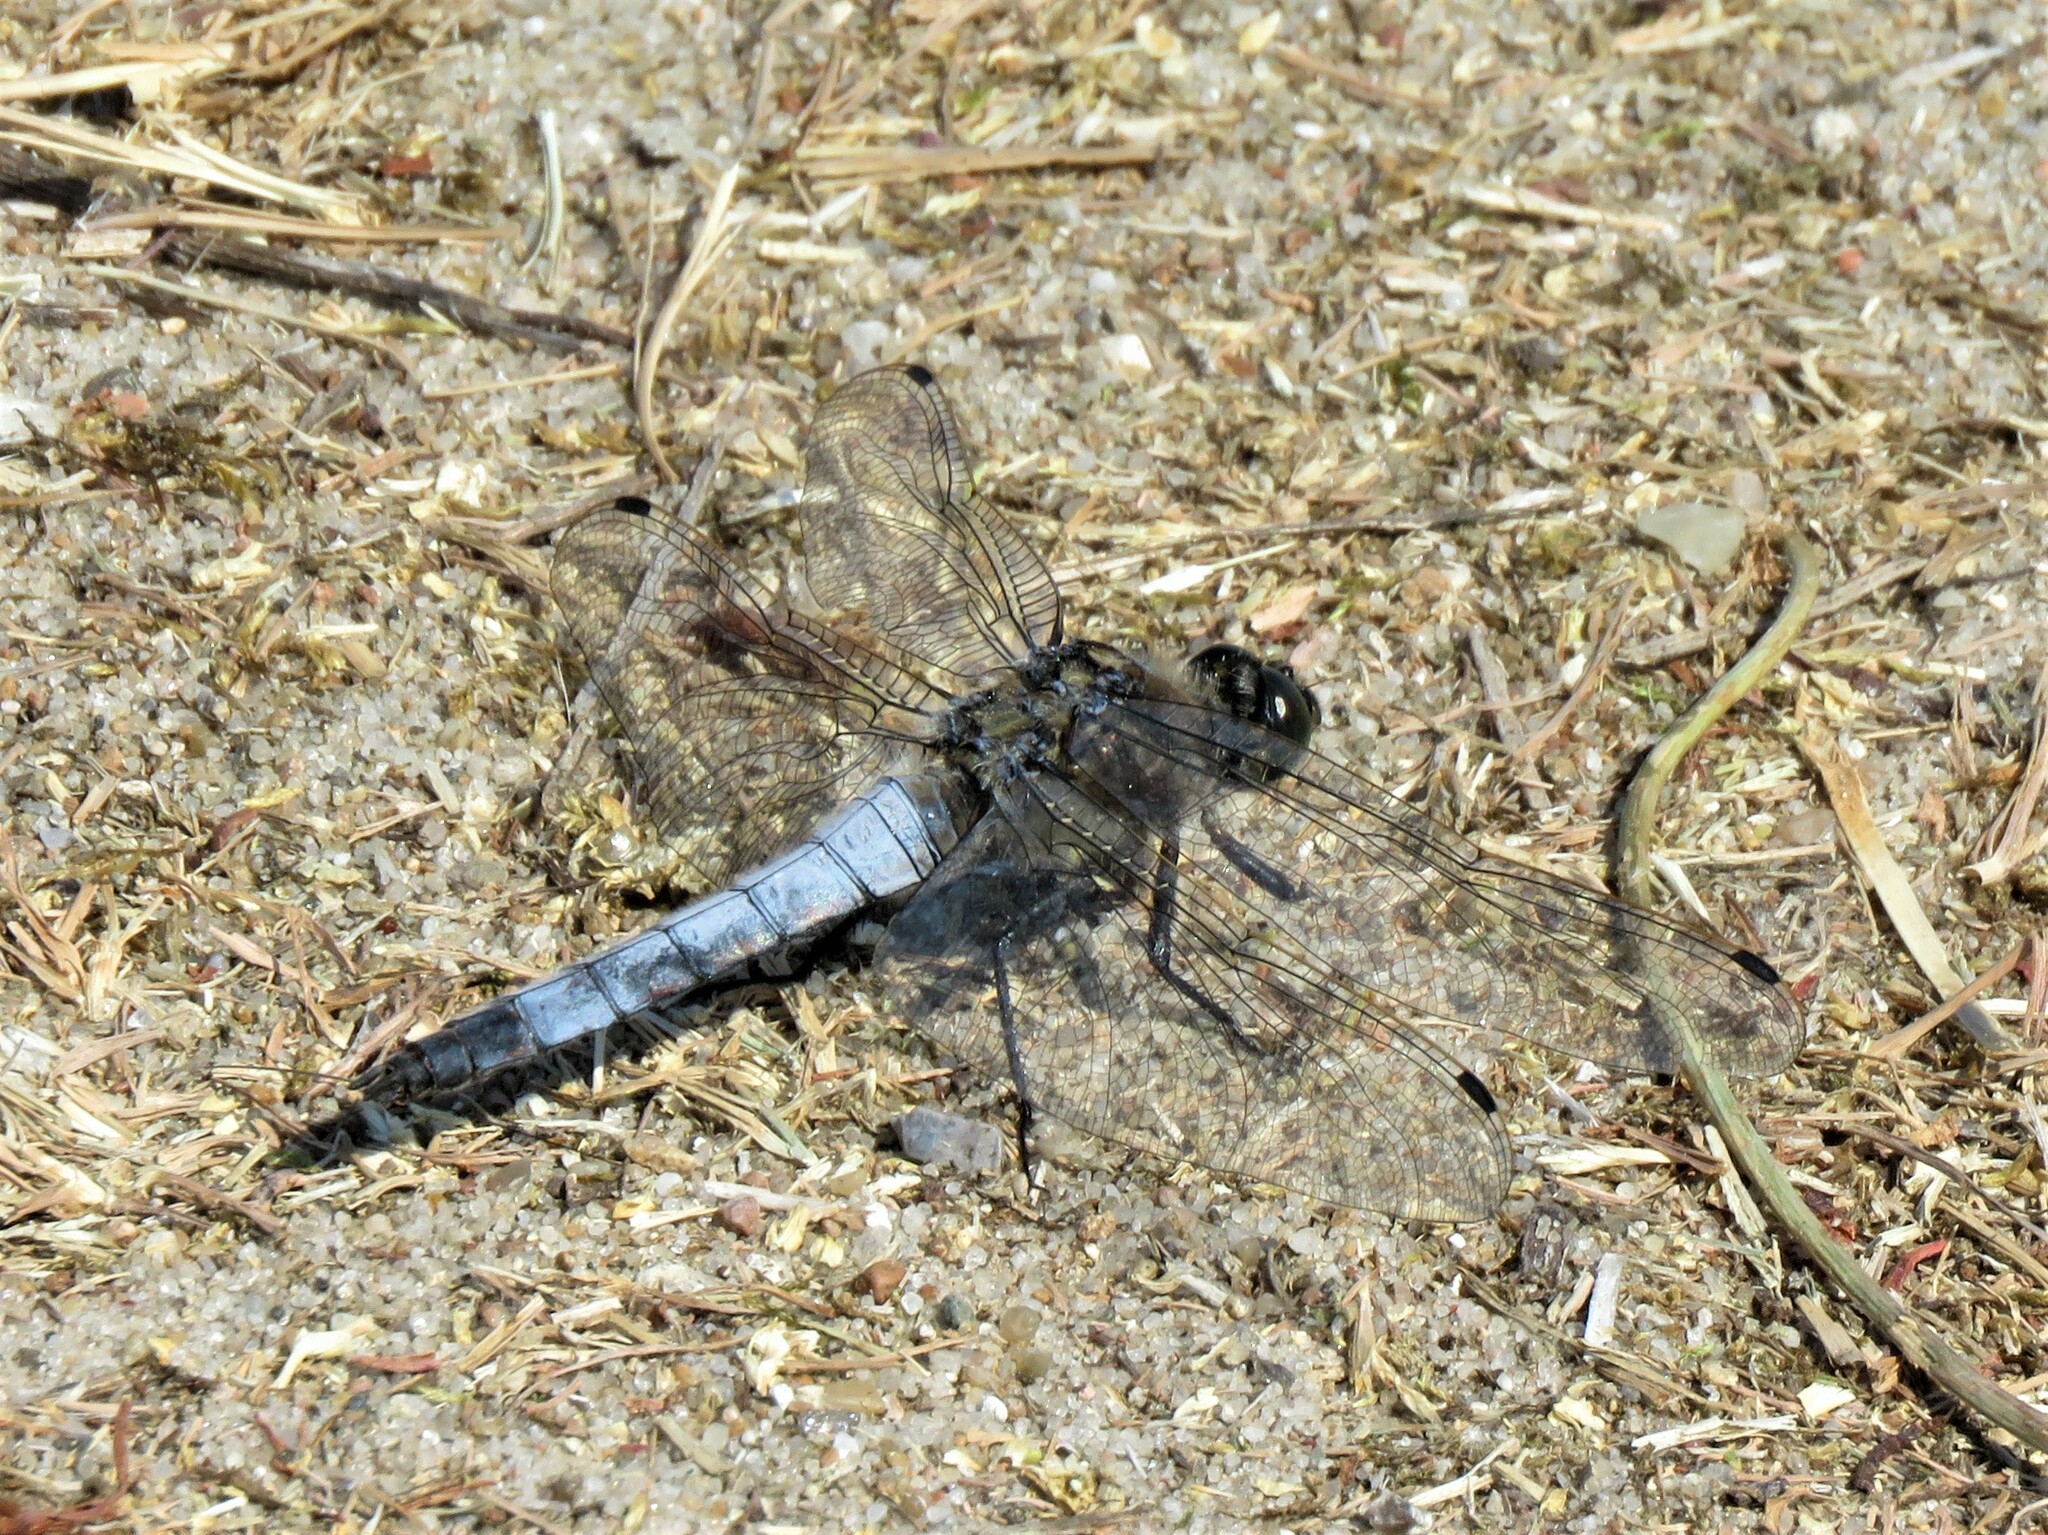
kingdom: Animalia
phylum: Arthropoda
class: Insecta
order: Odonata
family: Libellulidae
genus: Orthetrum
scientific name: Orthetrum cancellatum
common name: Black-tailed skimmer
